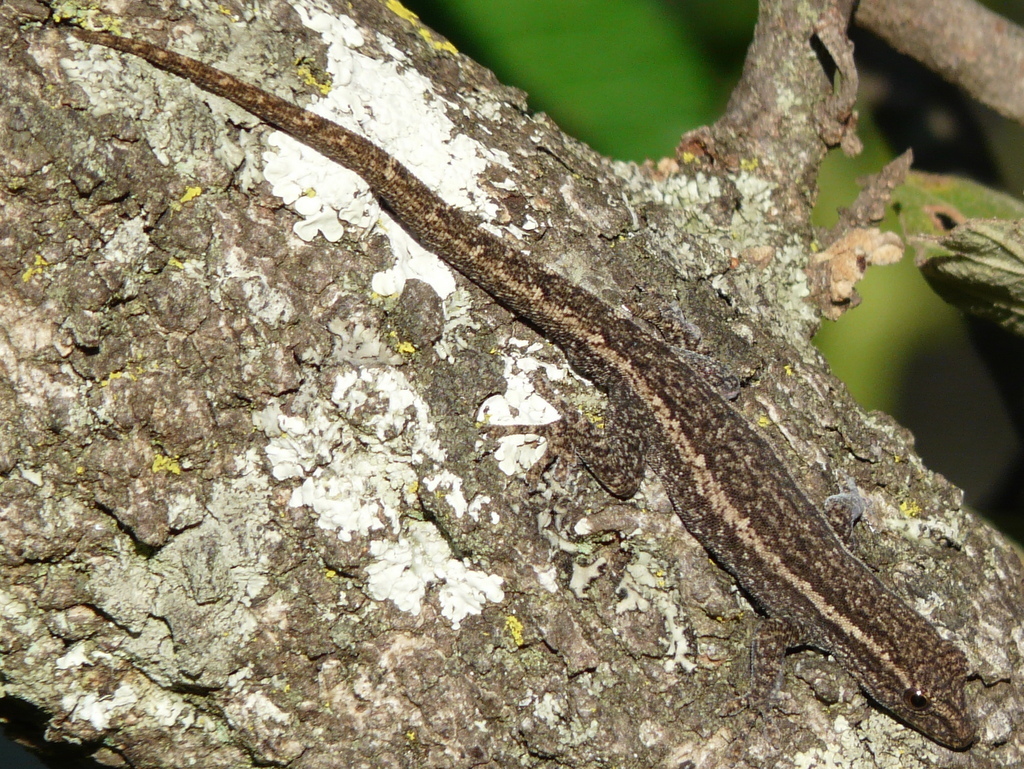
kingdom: Animalia
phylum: Chordata
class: Squamata
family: Gekkonidae
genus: Lygodactylus
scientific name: Lygodactylus capensis
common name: Cape dwarf gecko
